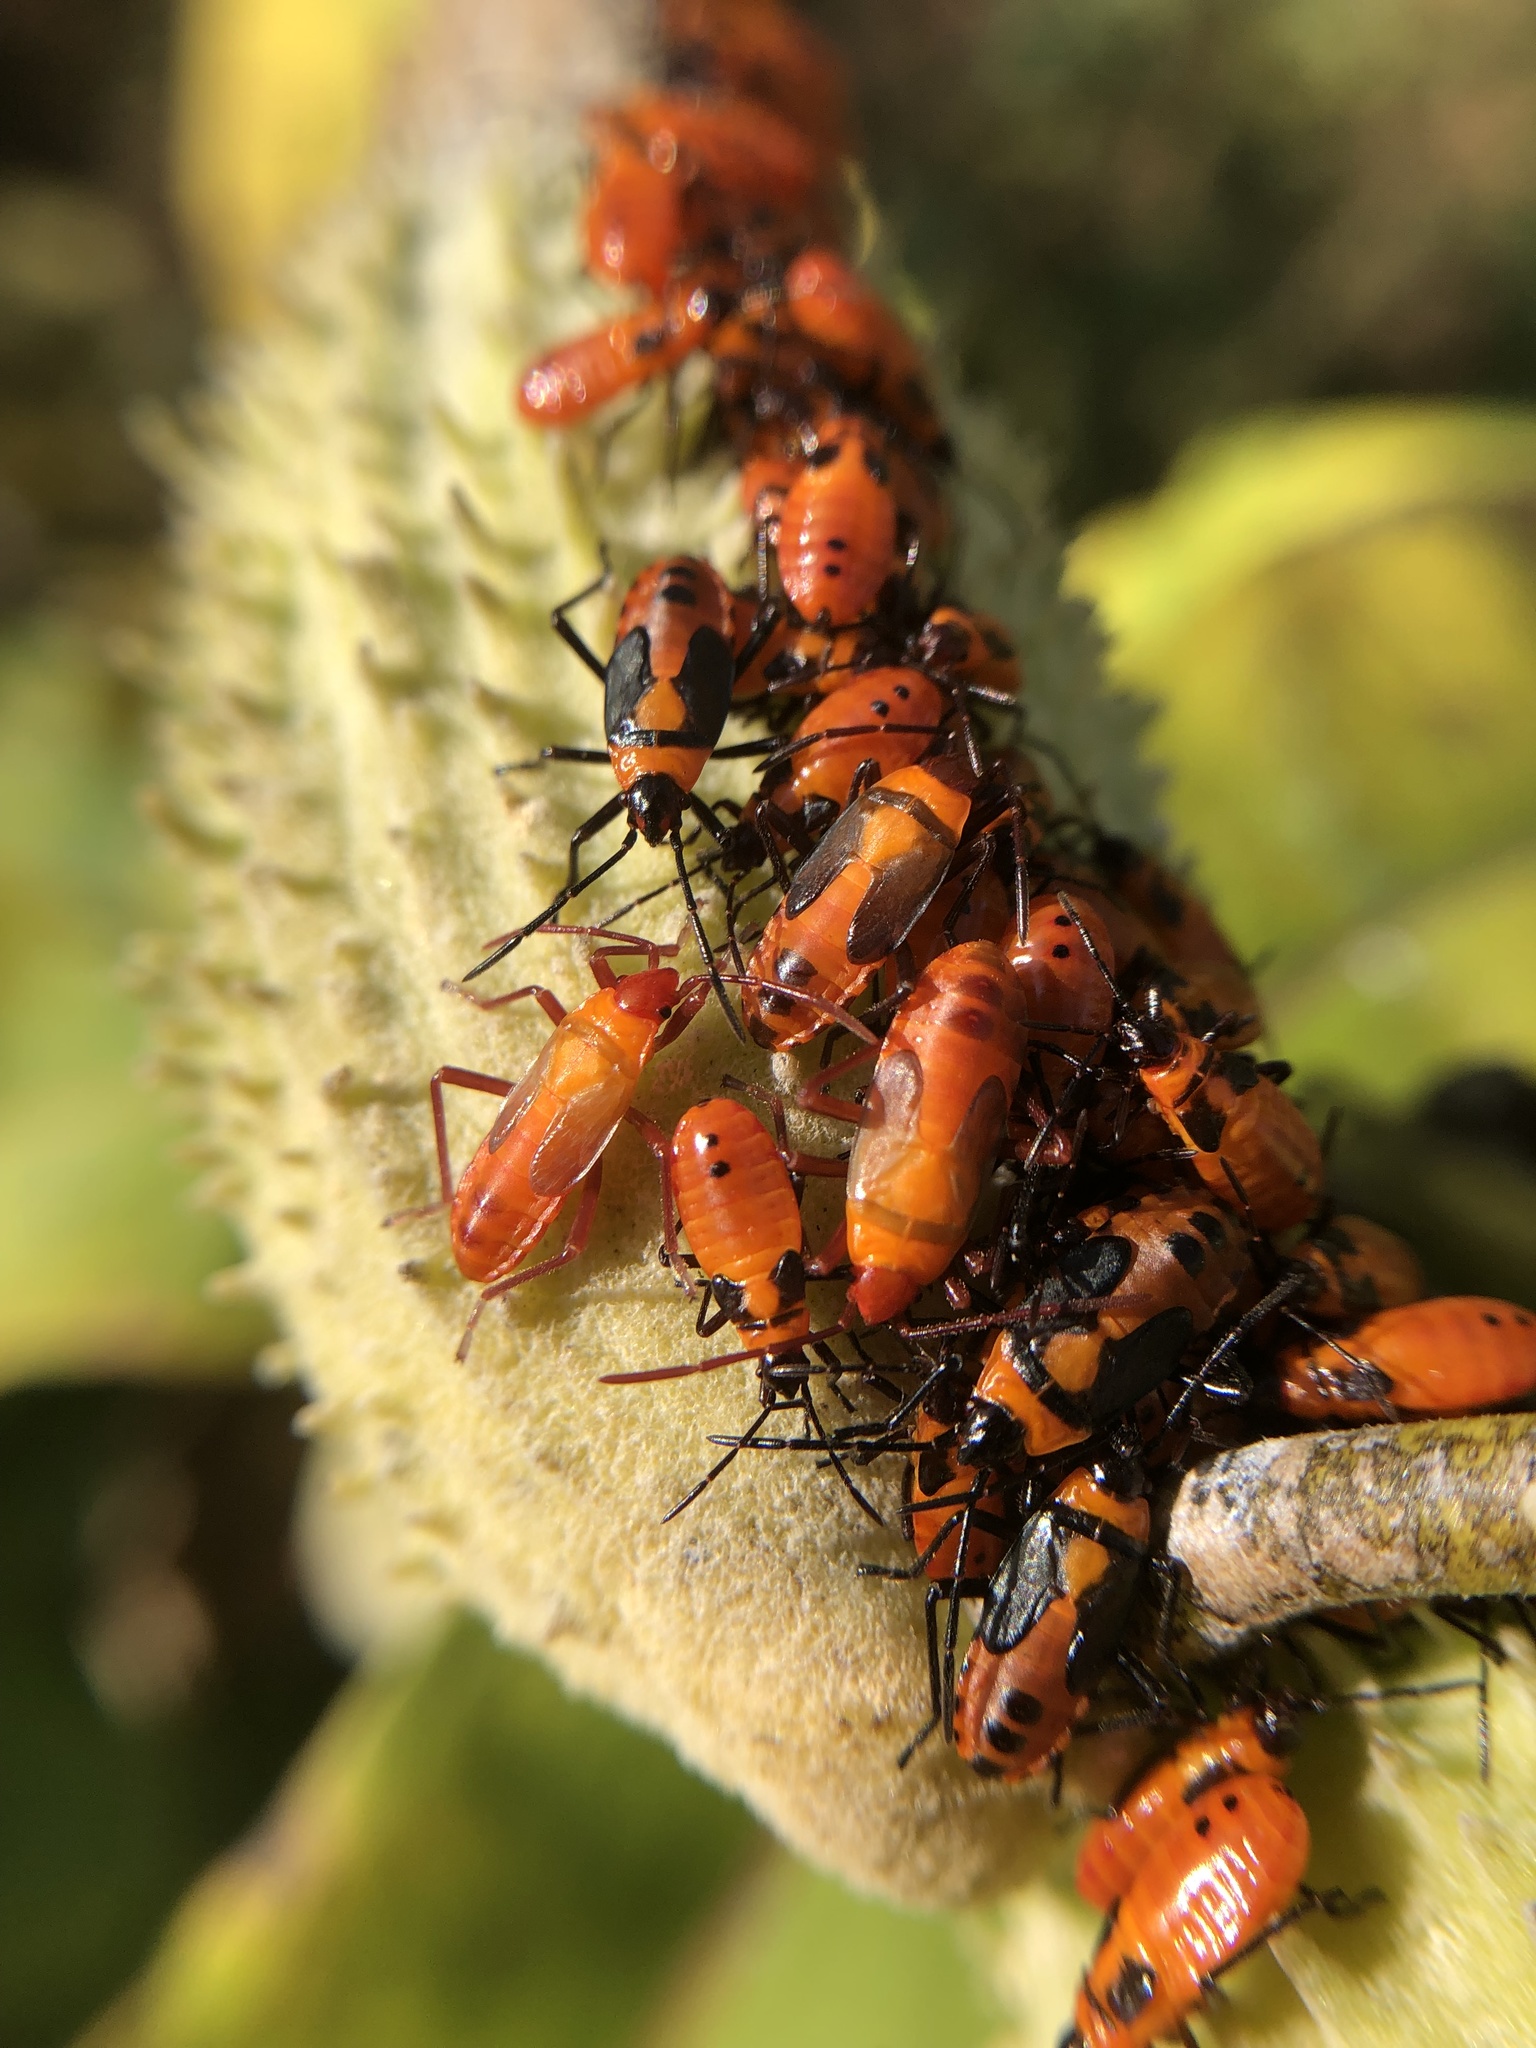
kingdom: Animalia
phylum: Arthropoda
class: Insecta
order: Hemiptera
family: Lygaeidae
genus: Oncopeltus
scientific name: Oncopeltus fasciatus
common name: Large milkweed bug
